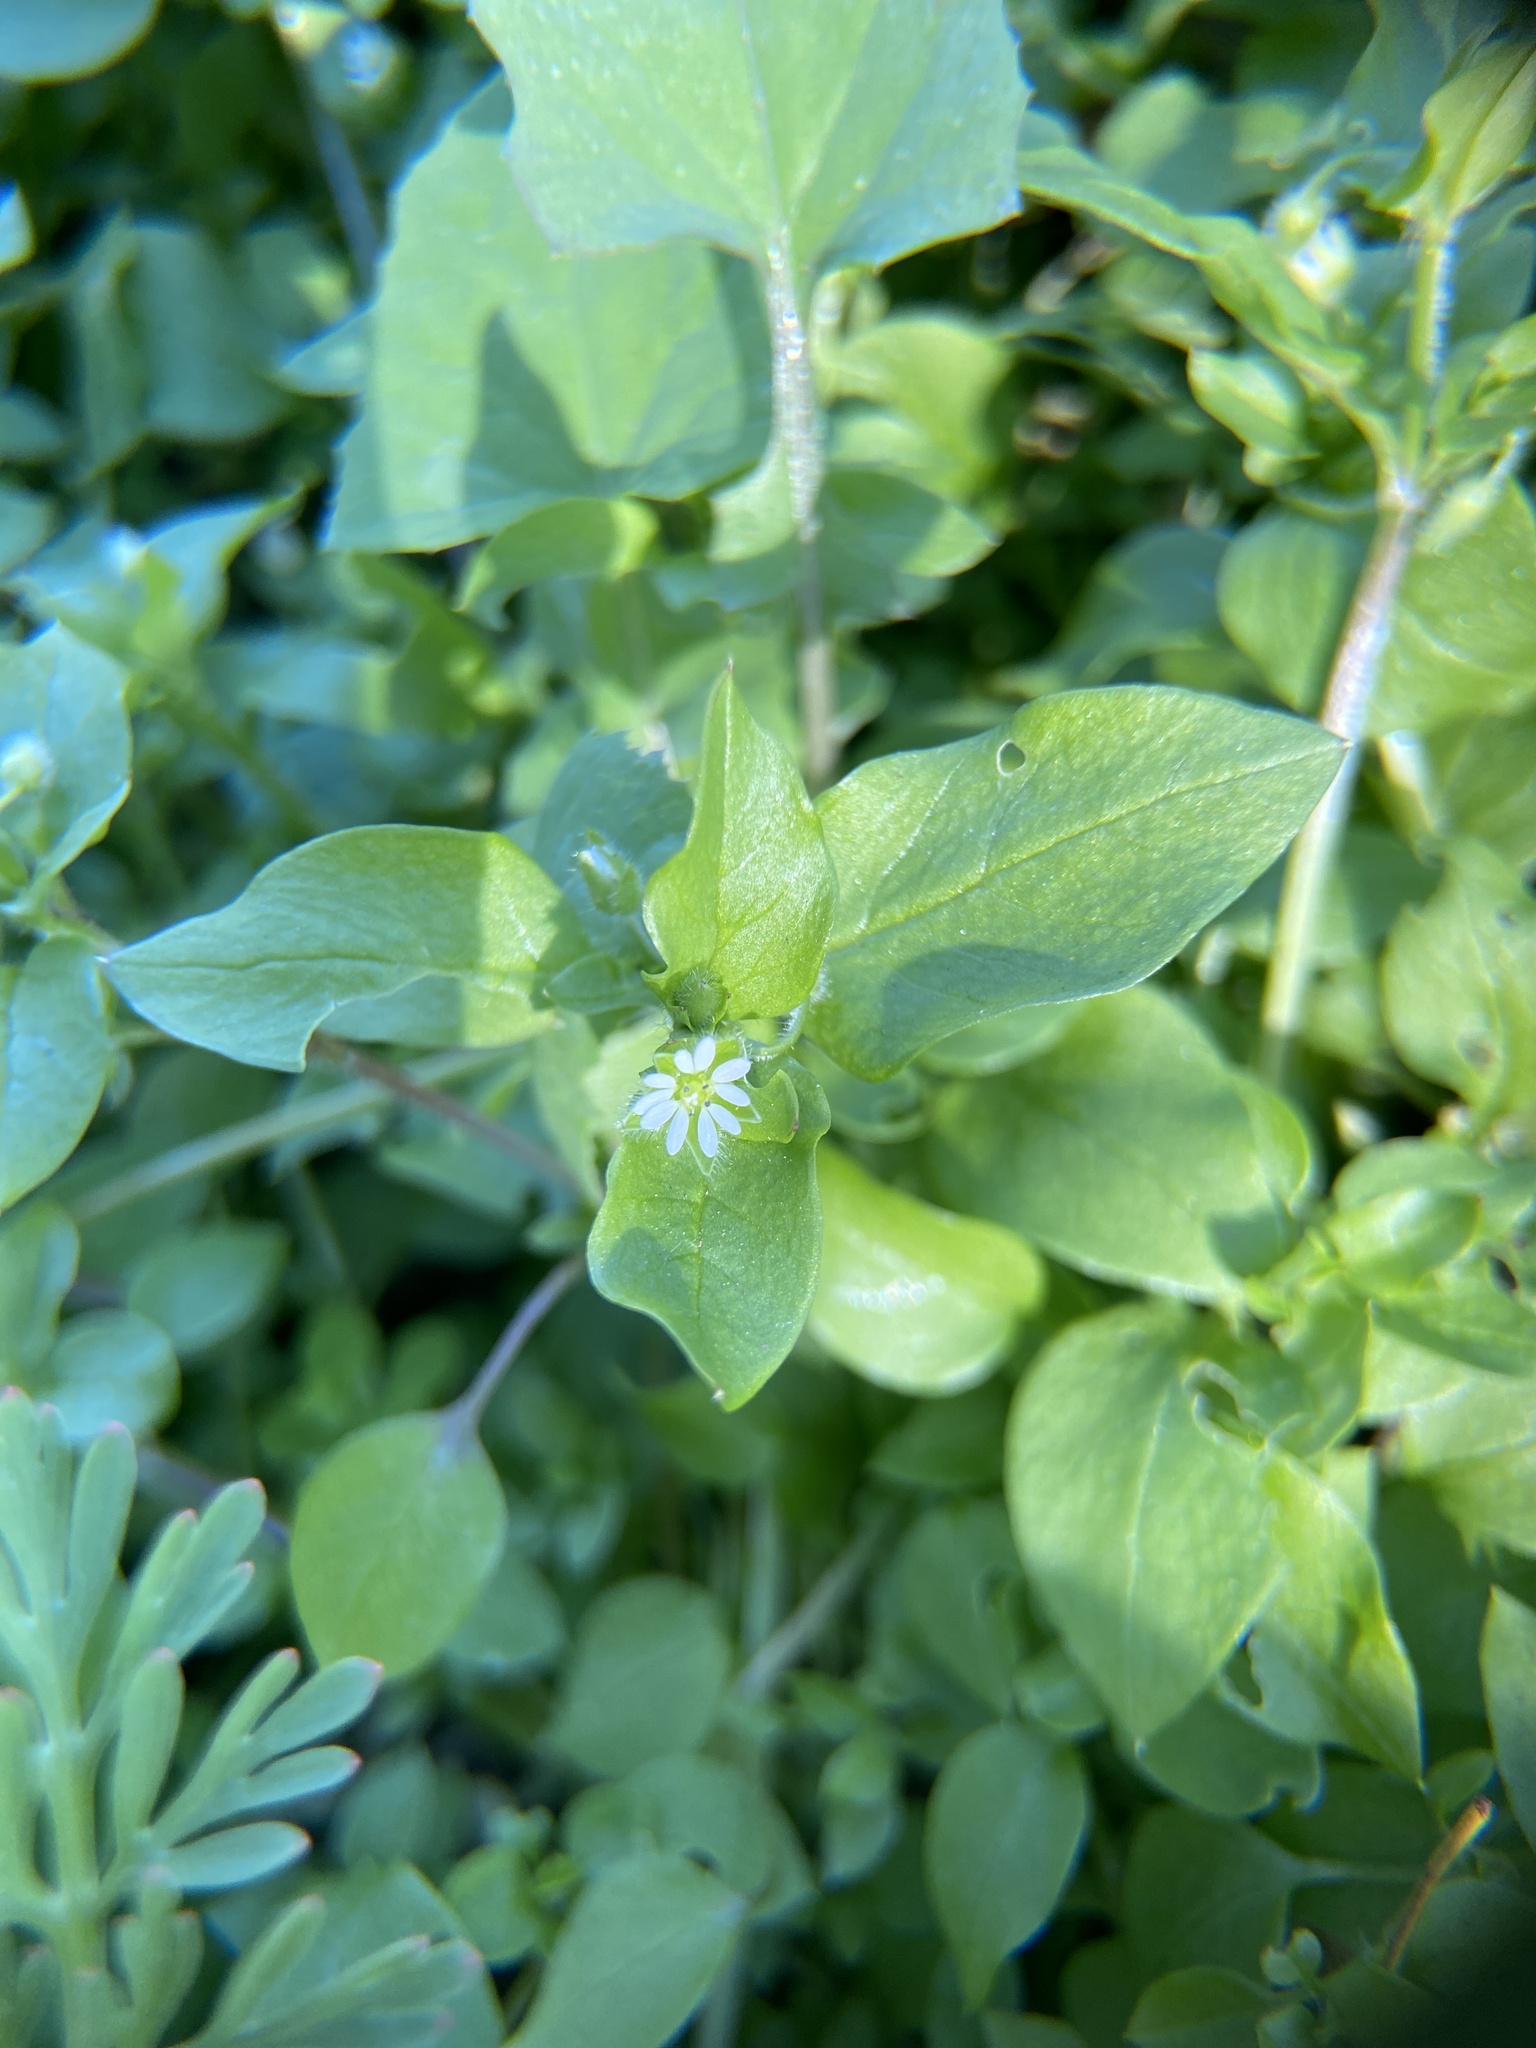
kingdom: Plantae
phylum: Tracheophyta
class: Magnoliopsida
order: Caryophyllales
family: Caryophyllaceae
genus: Stellaria
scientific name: Stellaria media
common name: Common chickweed
